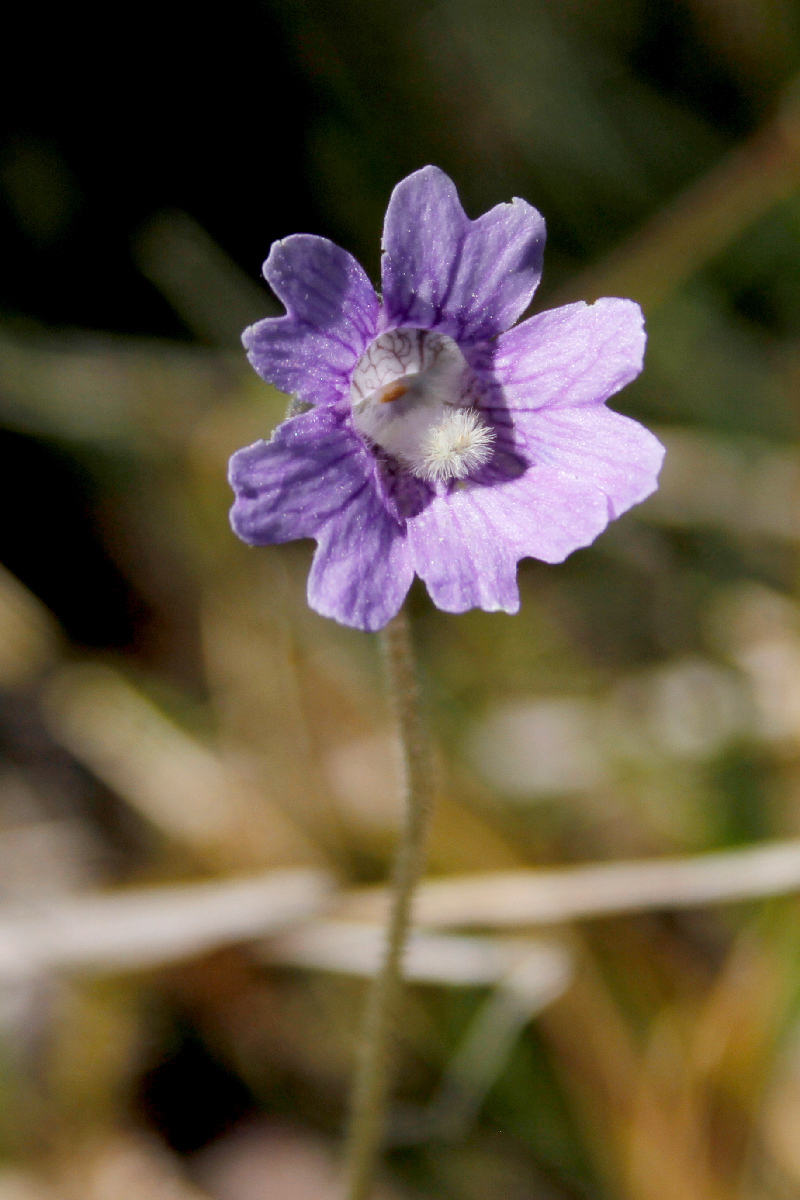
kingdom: Plantae
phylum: Tracheophyta
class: Magnoliopsida
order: Lamiales
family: Lentibulariaceae
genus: Pinguicula
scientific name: Pinguicula caerulea
